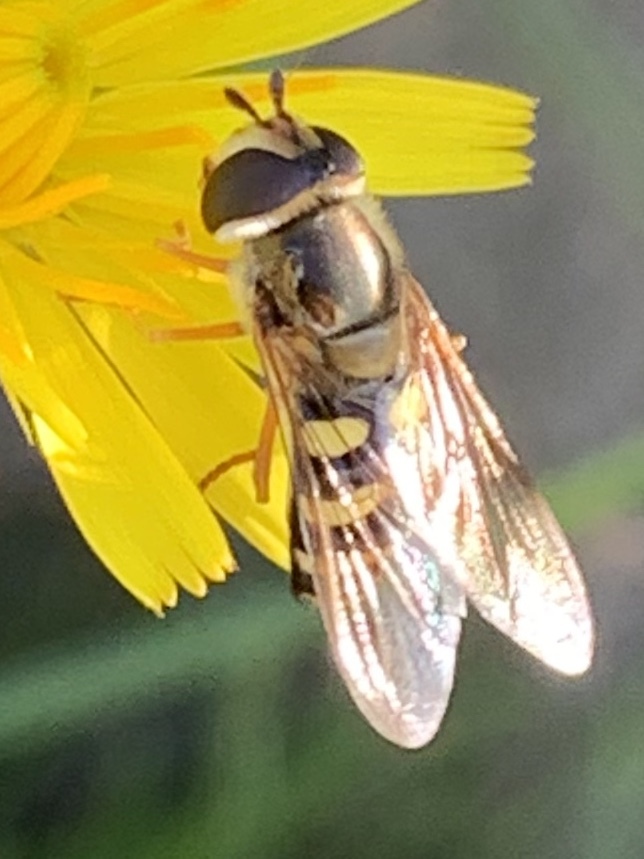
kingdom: Animalia
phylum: Arthropoda
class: Insecta
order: Diptera
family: Syrphidae
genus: Eupeodes
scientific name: Eupeodes fumipennis
